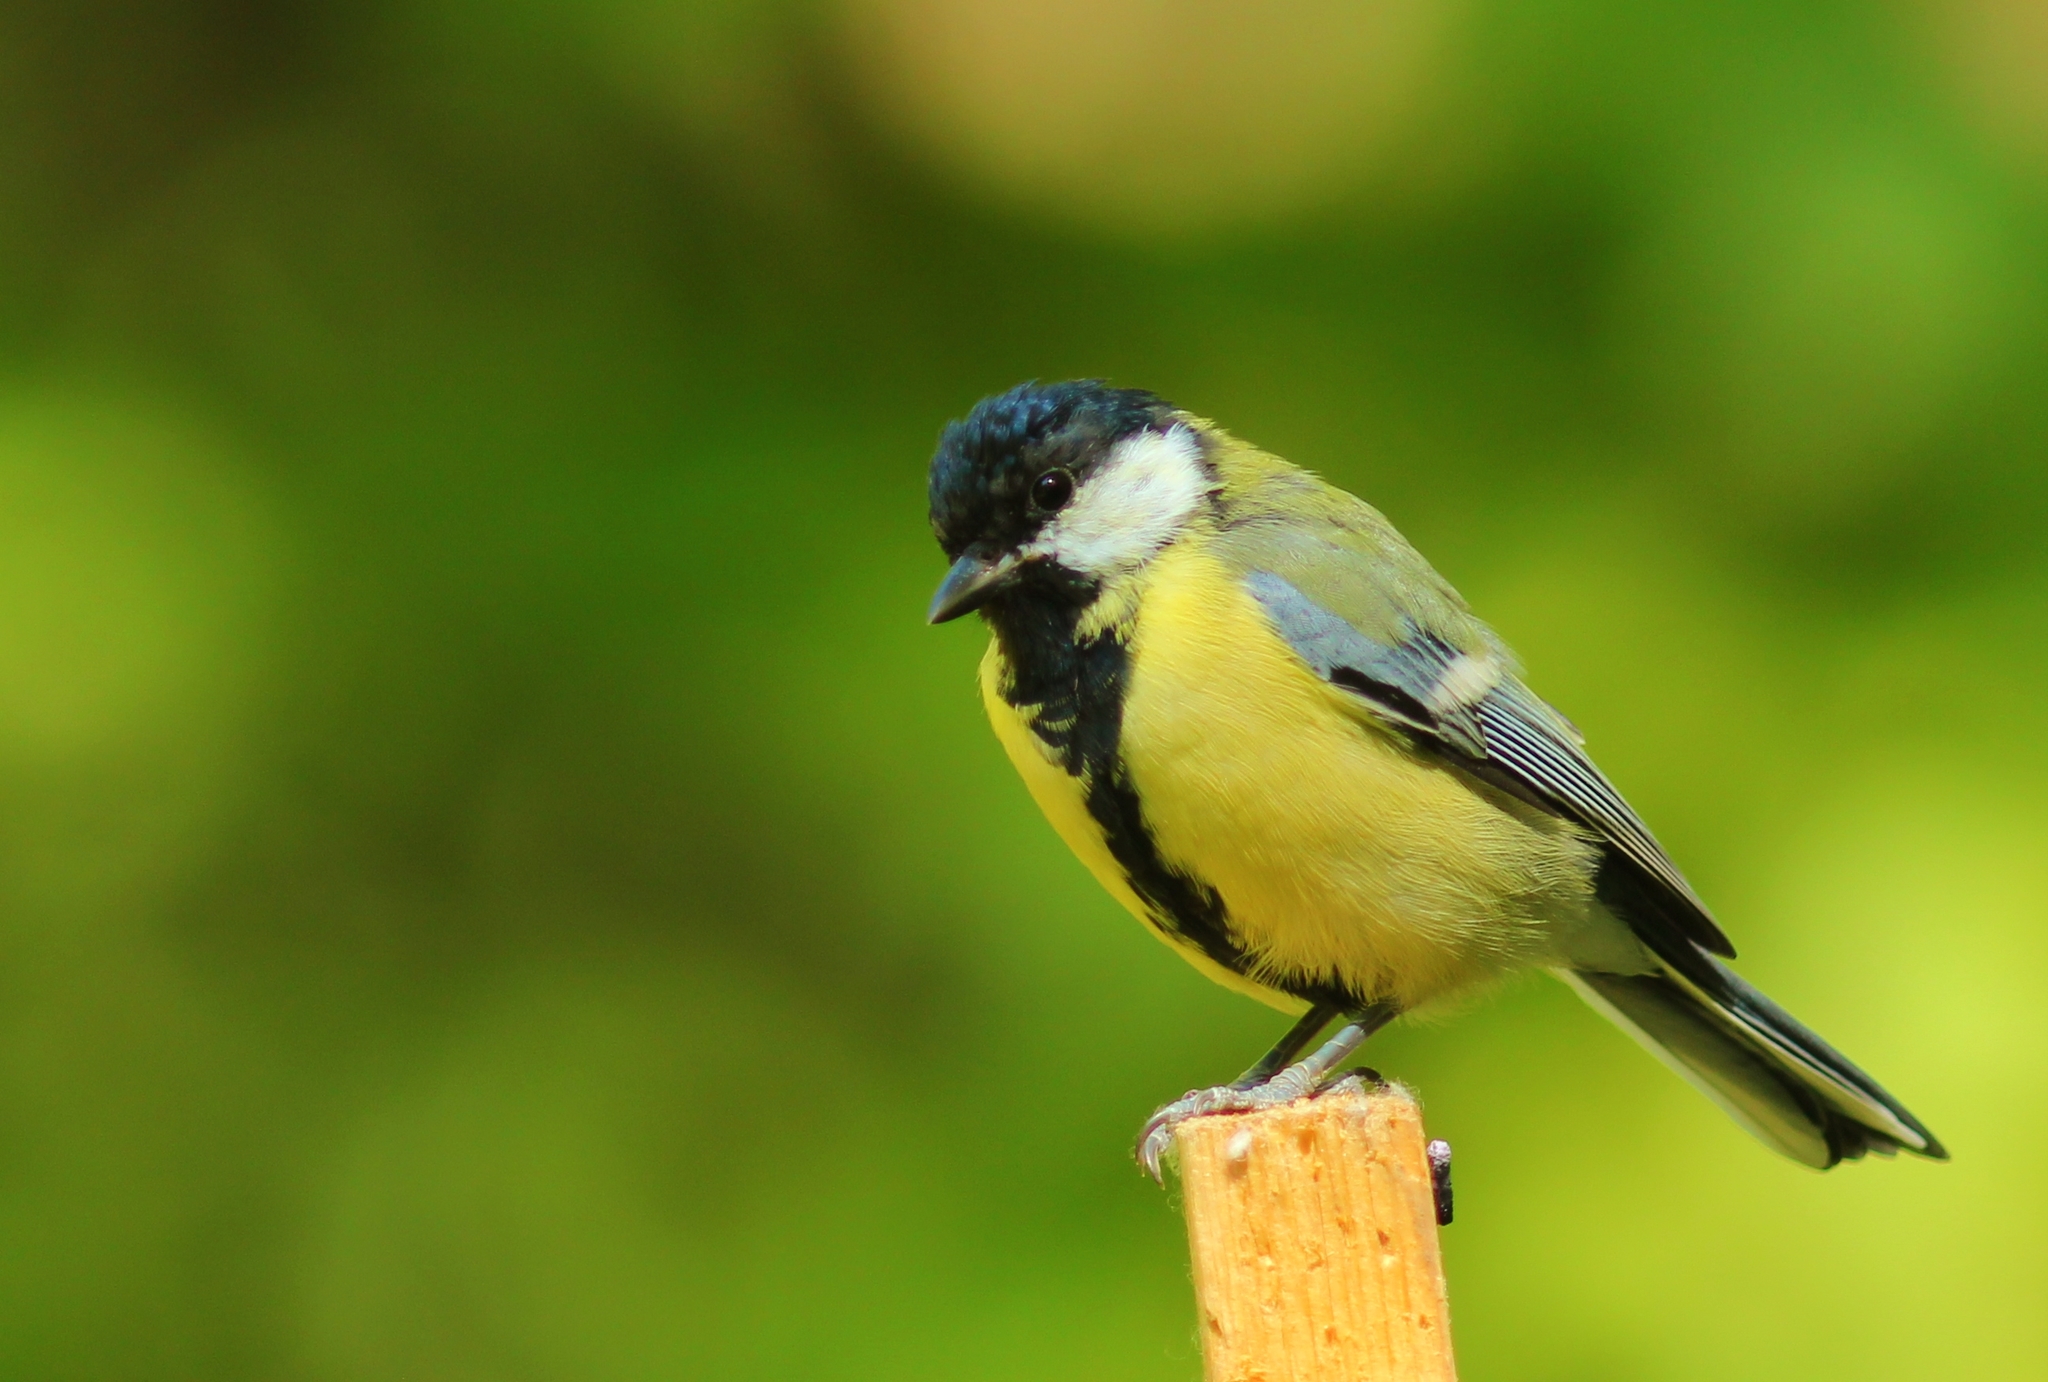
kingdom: Animalia
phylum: Chordata
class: Aves
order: Passeriformes
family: Paridae
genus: Parus
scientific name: Parus major
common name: Great tit
